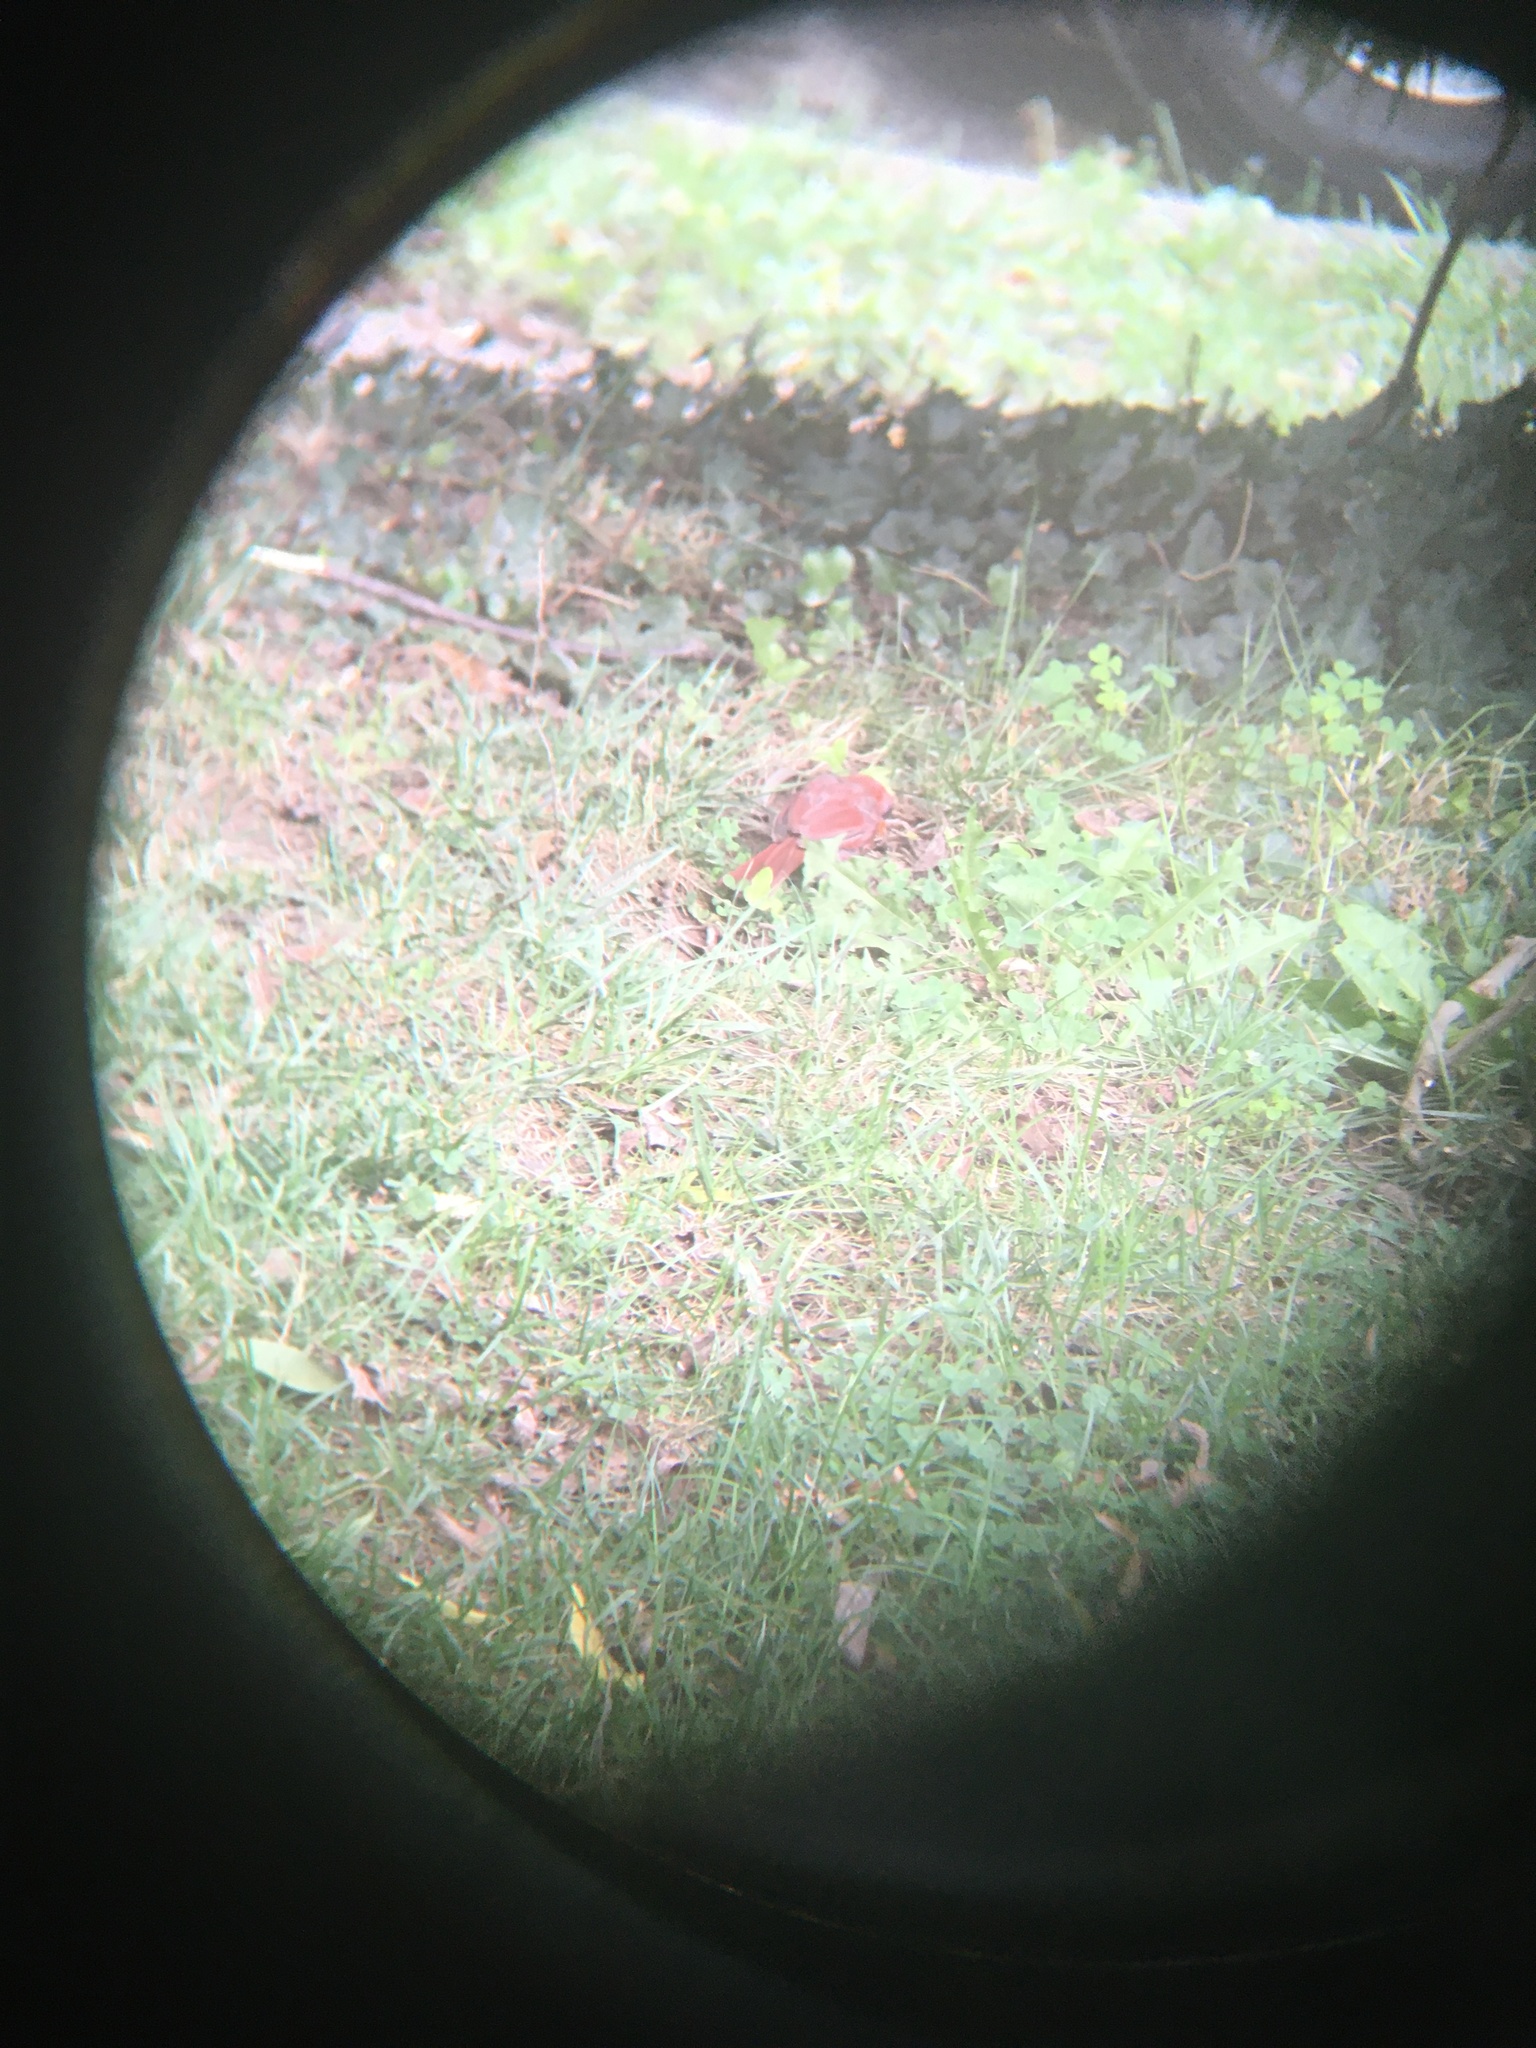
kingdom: Animalia
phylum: Chordata
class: Aves
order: Passeriformes
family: Cardinalidae
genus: Cardinalis
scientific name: Cardinalis cardinalis
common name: Northern cardinal
